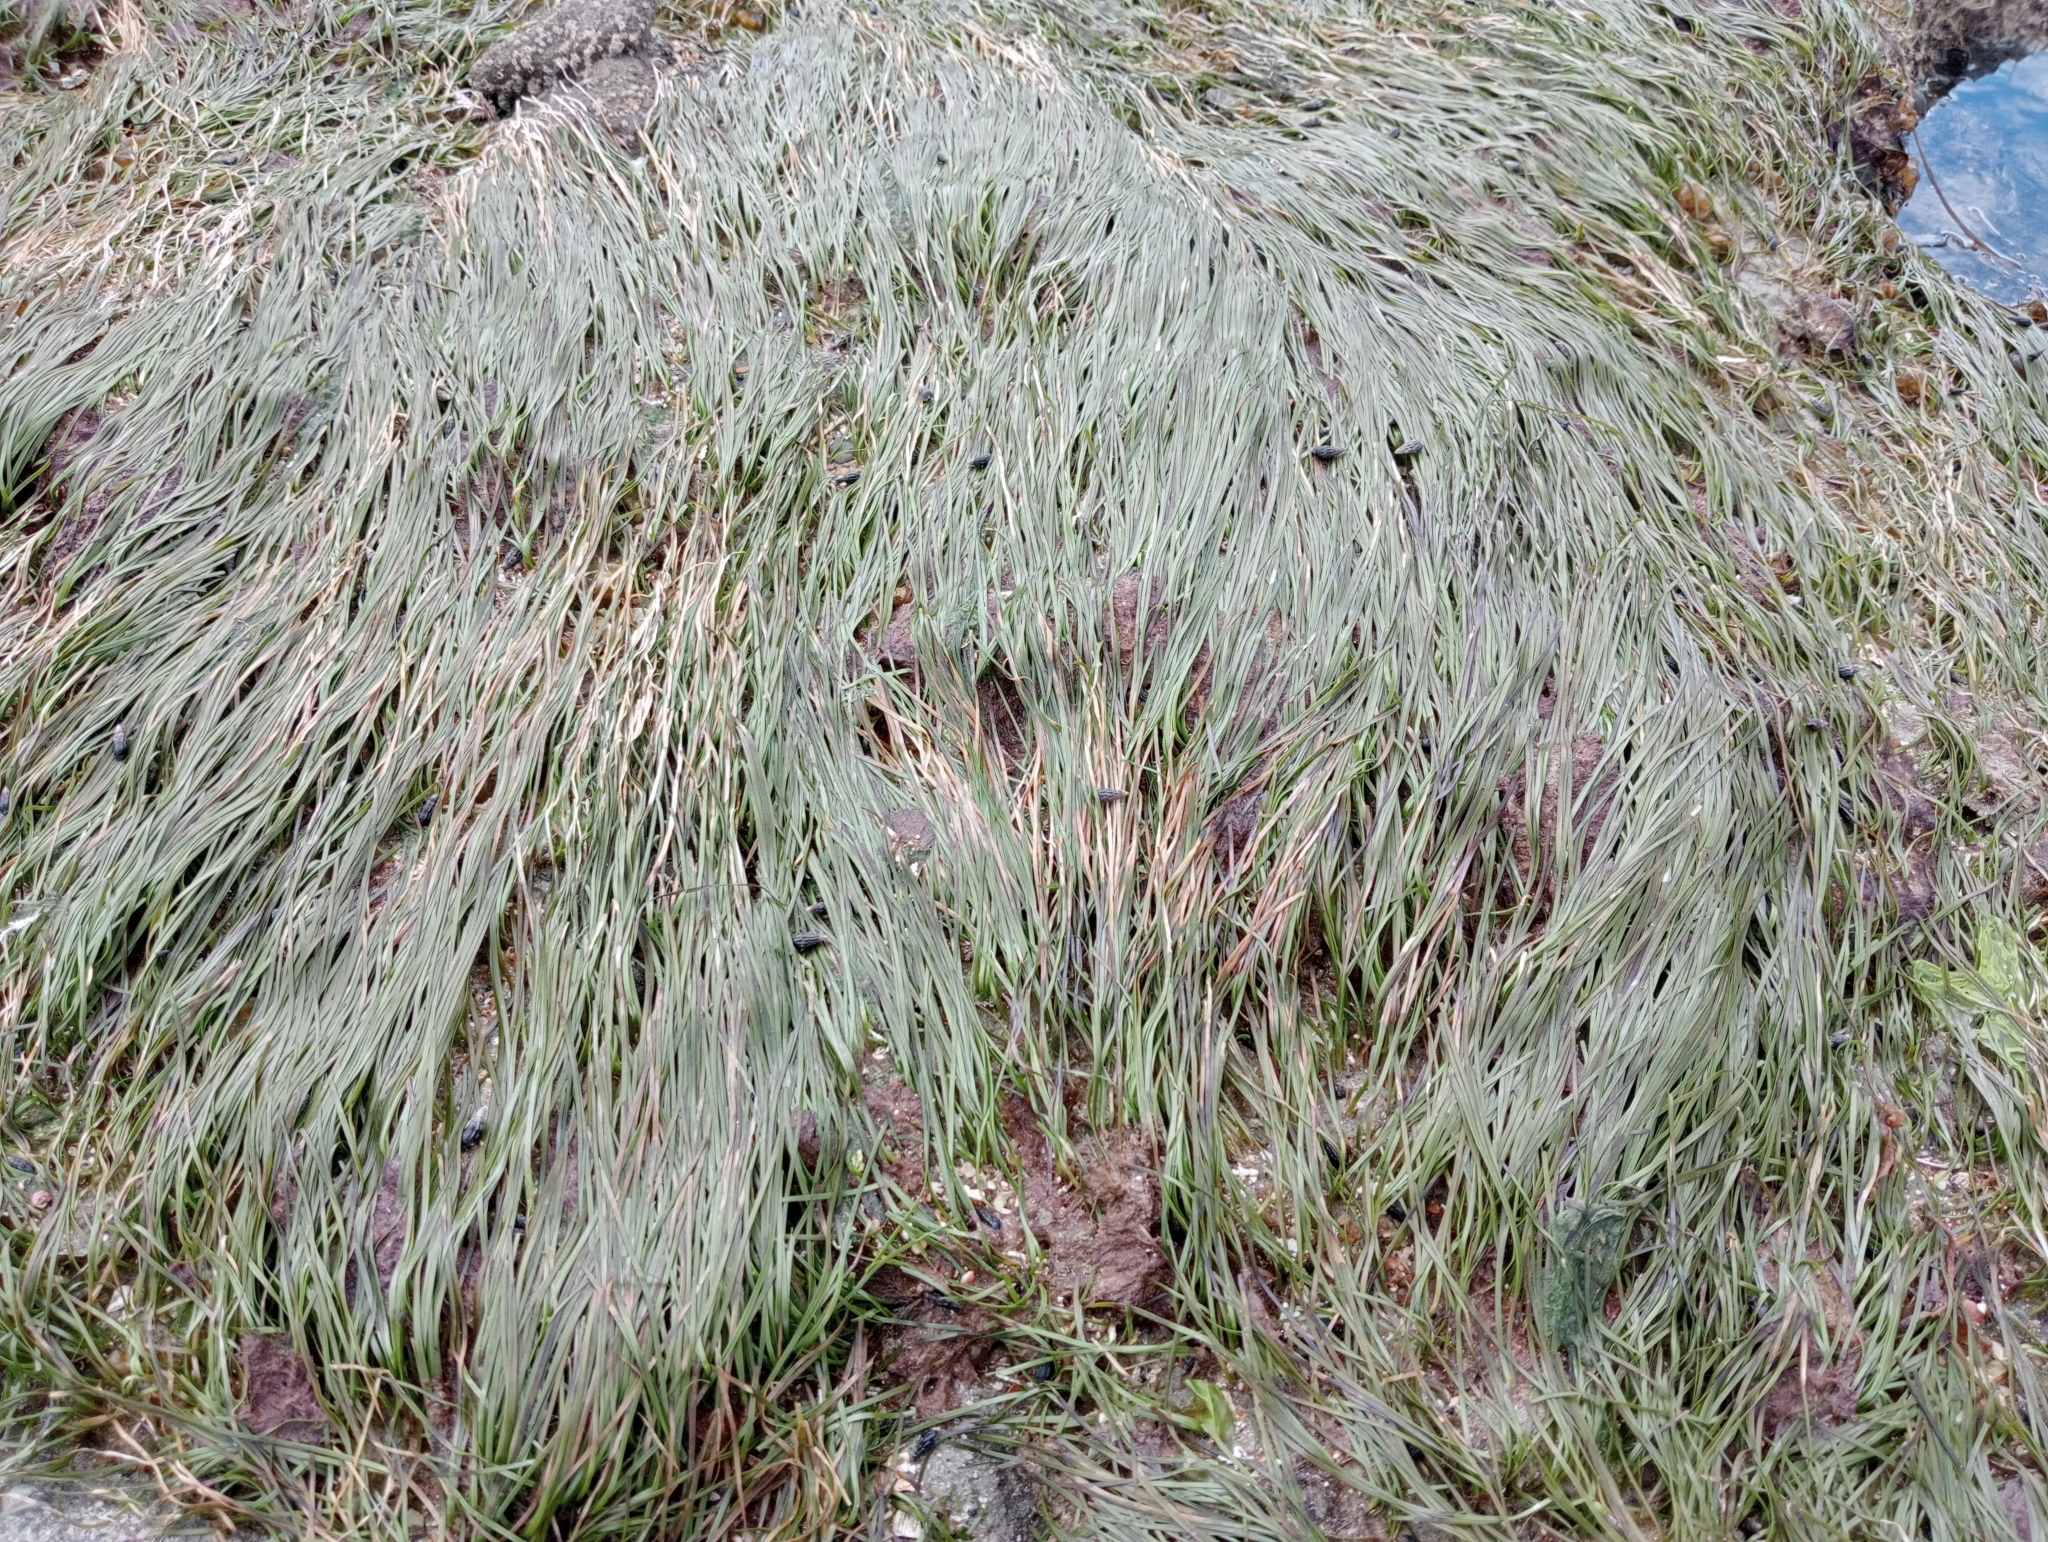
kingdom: Plantae
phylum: Tracheophyta
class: Liliopsida
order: Alismatales
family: Zosteraceae
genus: Zostera
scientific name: Zostera novazelandica
